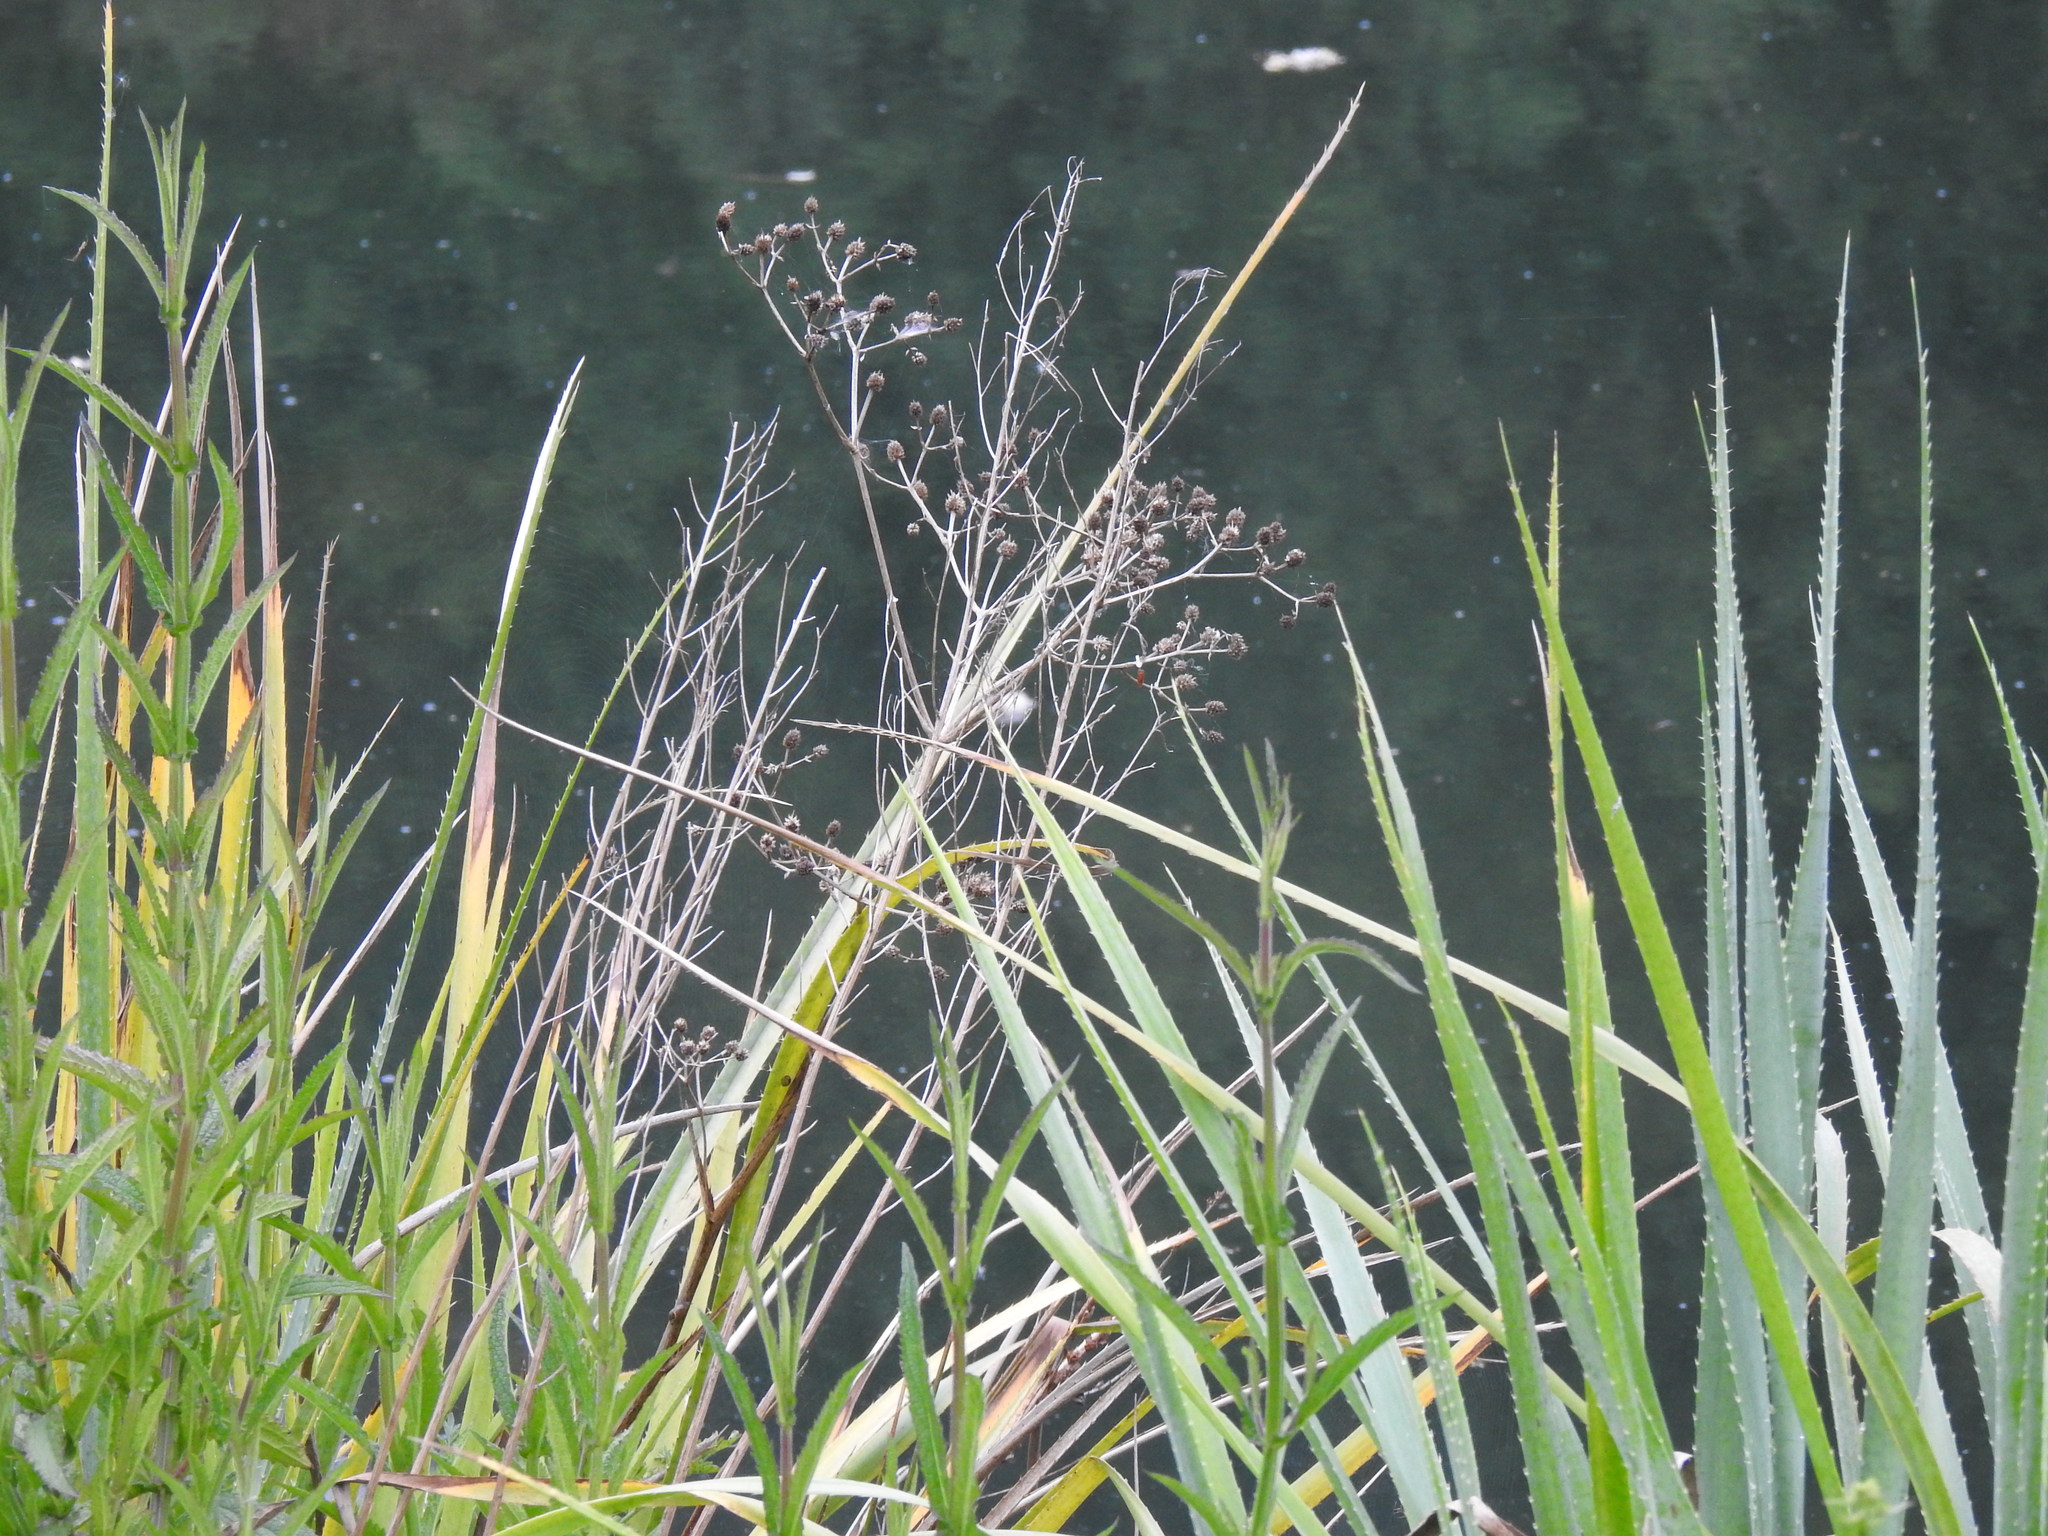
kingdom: Plantae
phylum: Tracheophyta
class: Magnoliopsida
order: Apiales
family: Apiaceae
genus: Eryngium
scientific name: Eryngium pandanifolium
